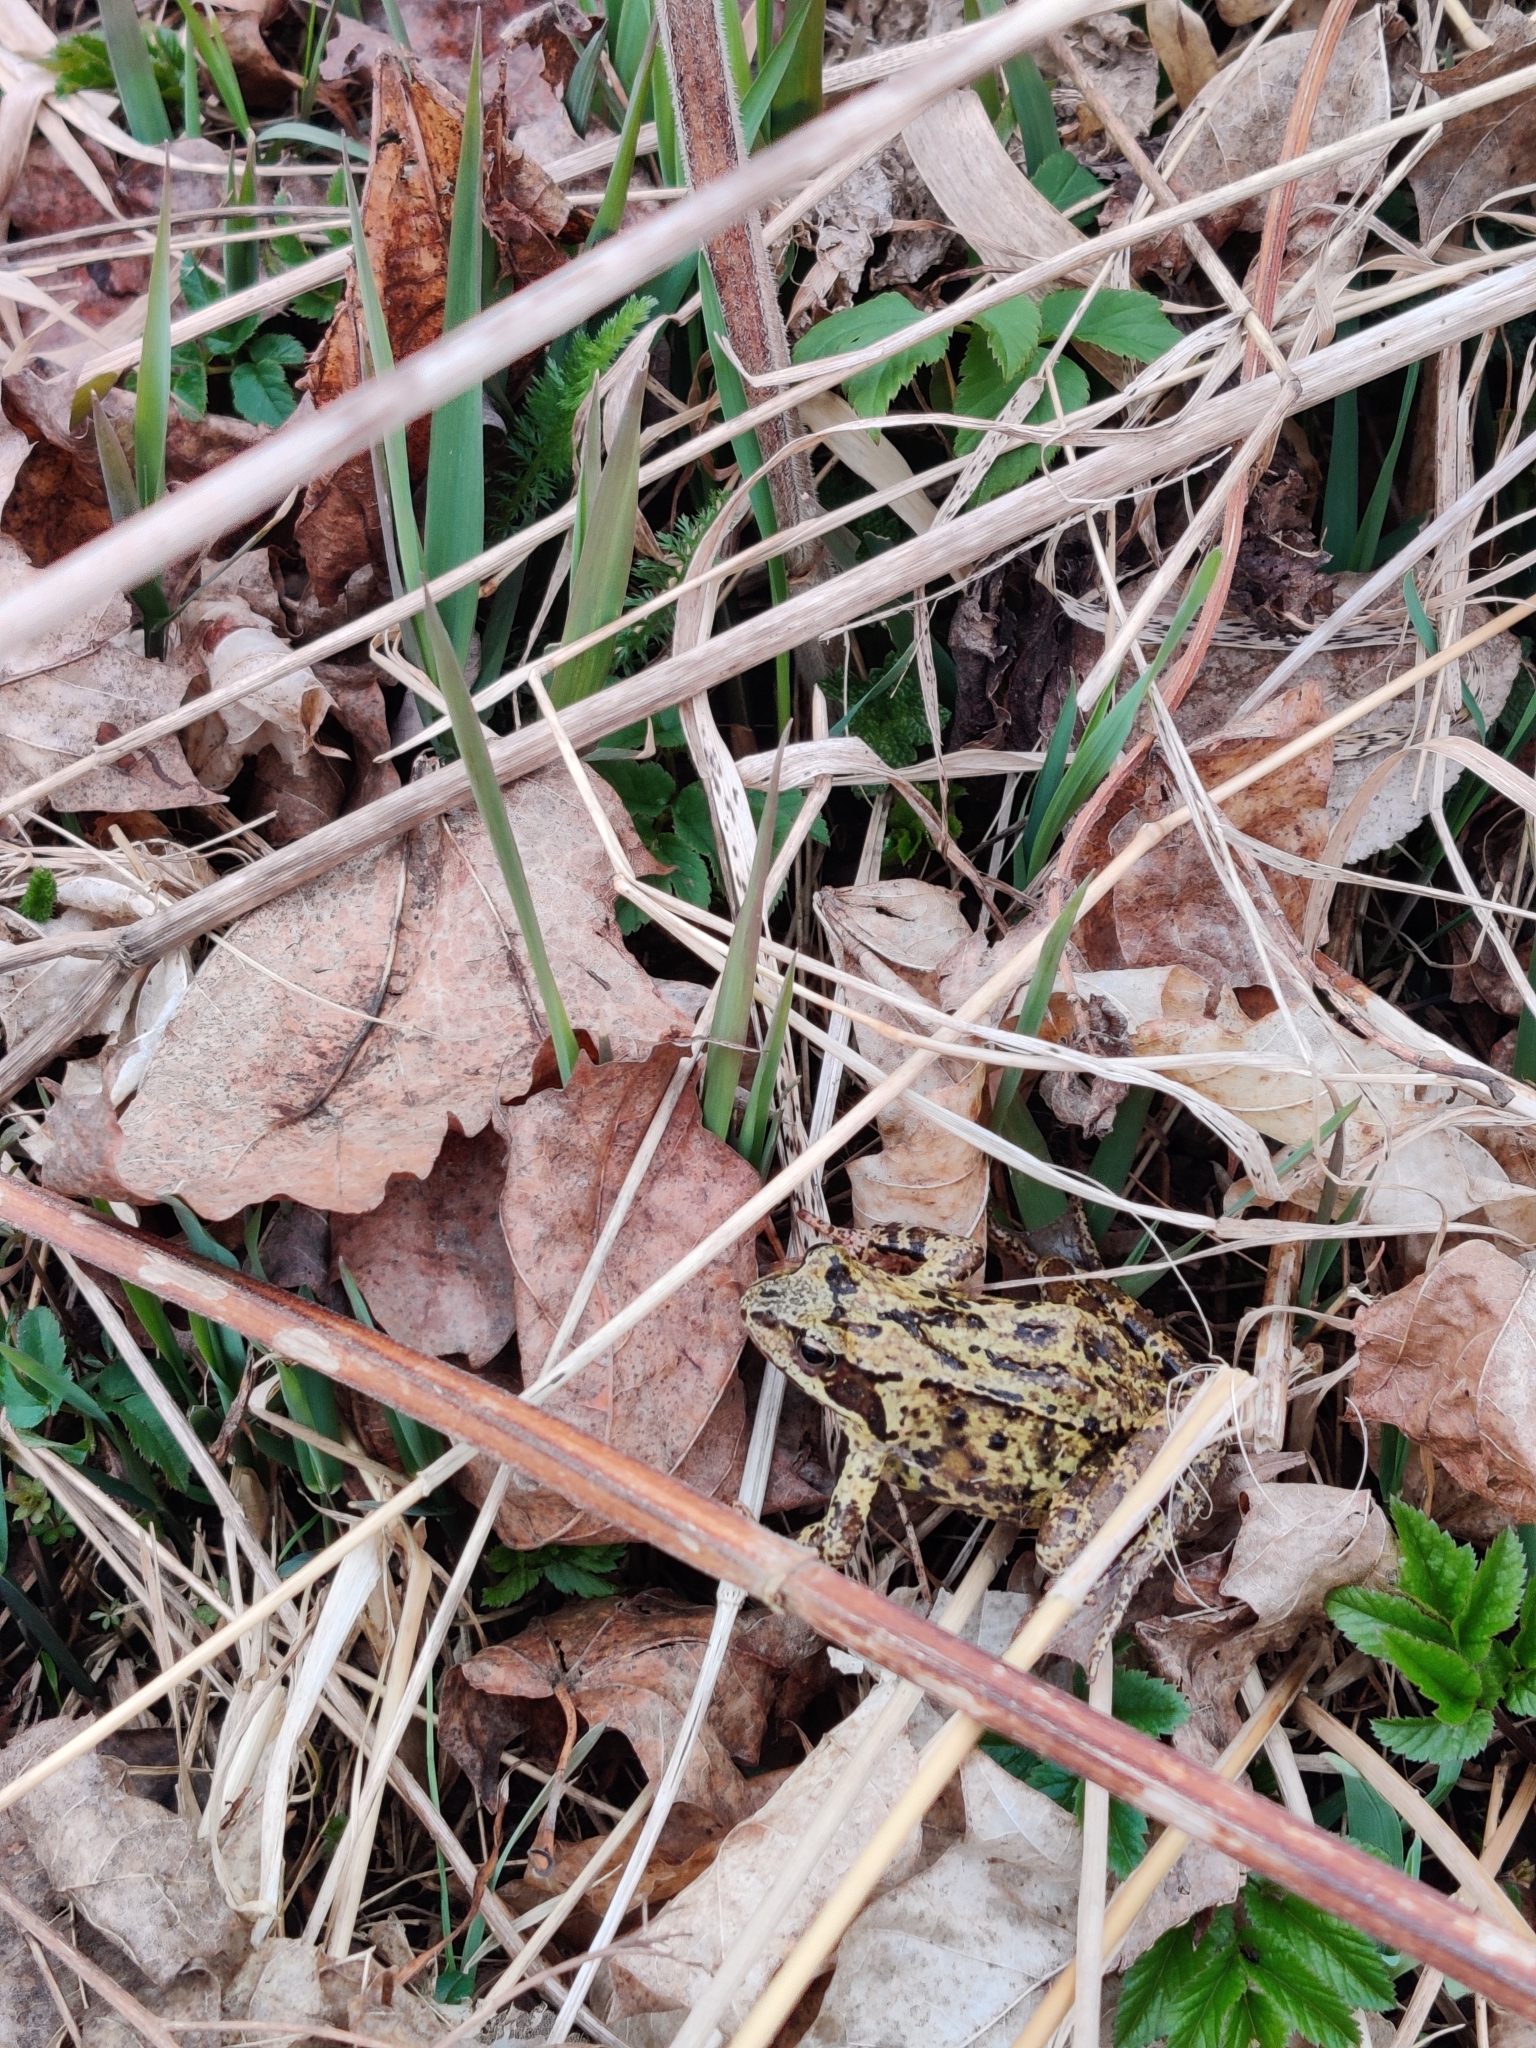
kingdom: Animalia
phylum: Chordata
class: Amphibia
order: Anura
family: Ranidae
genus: Rana
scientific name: Rana temporaria
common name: Common frog
